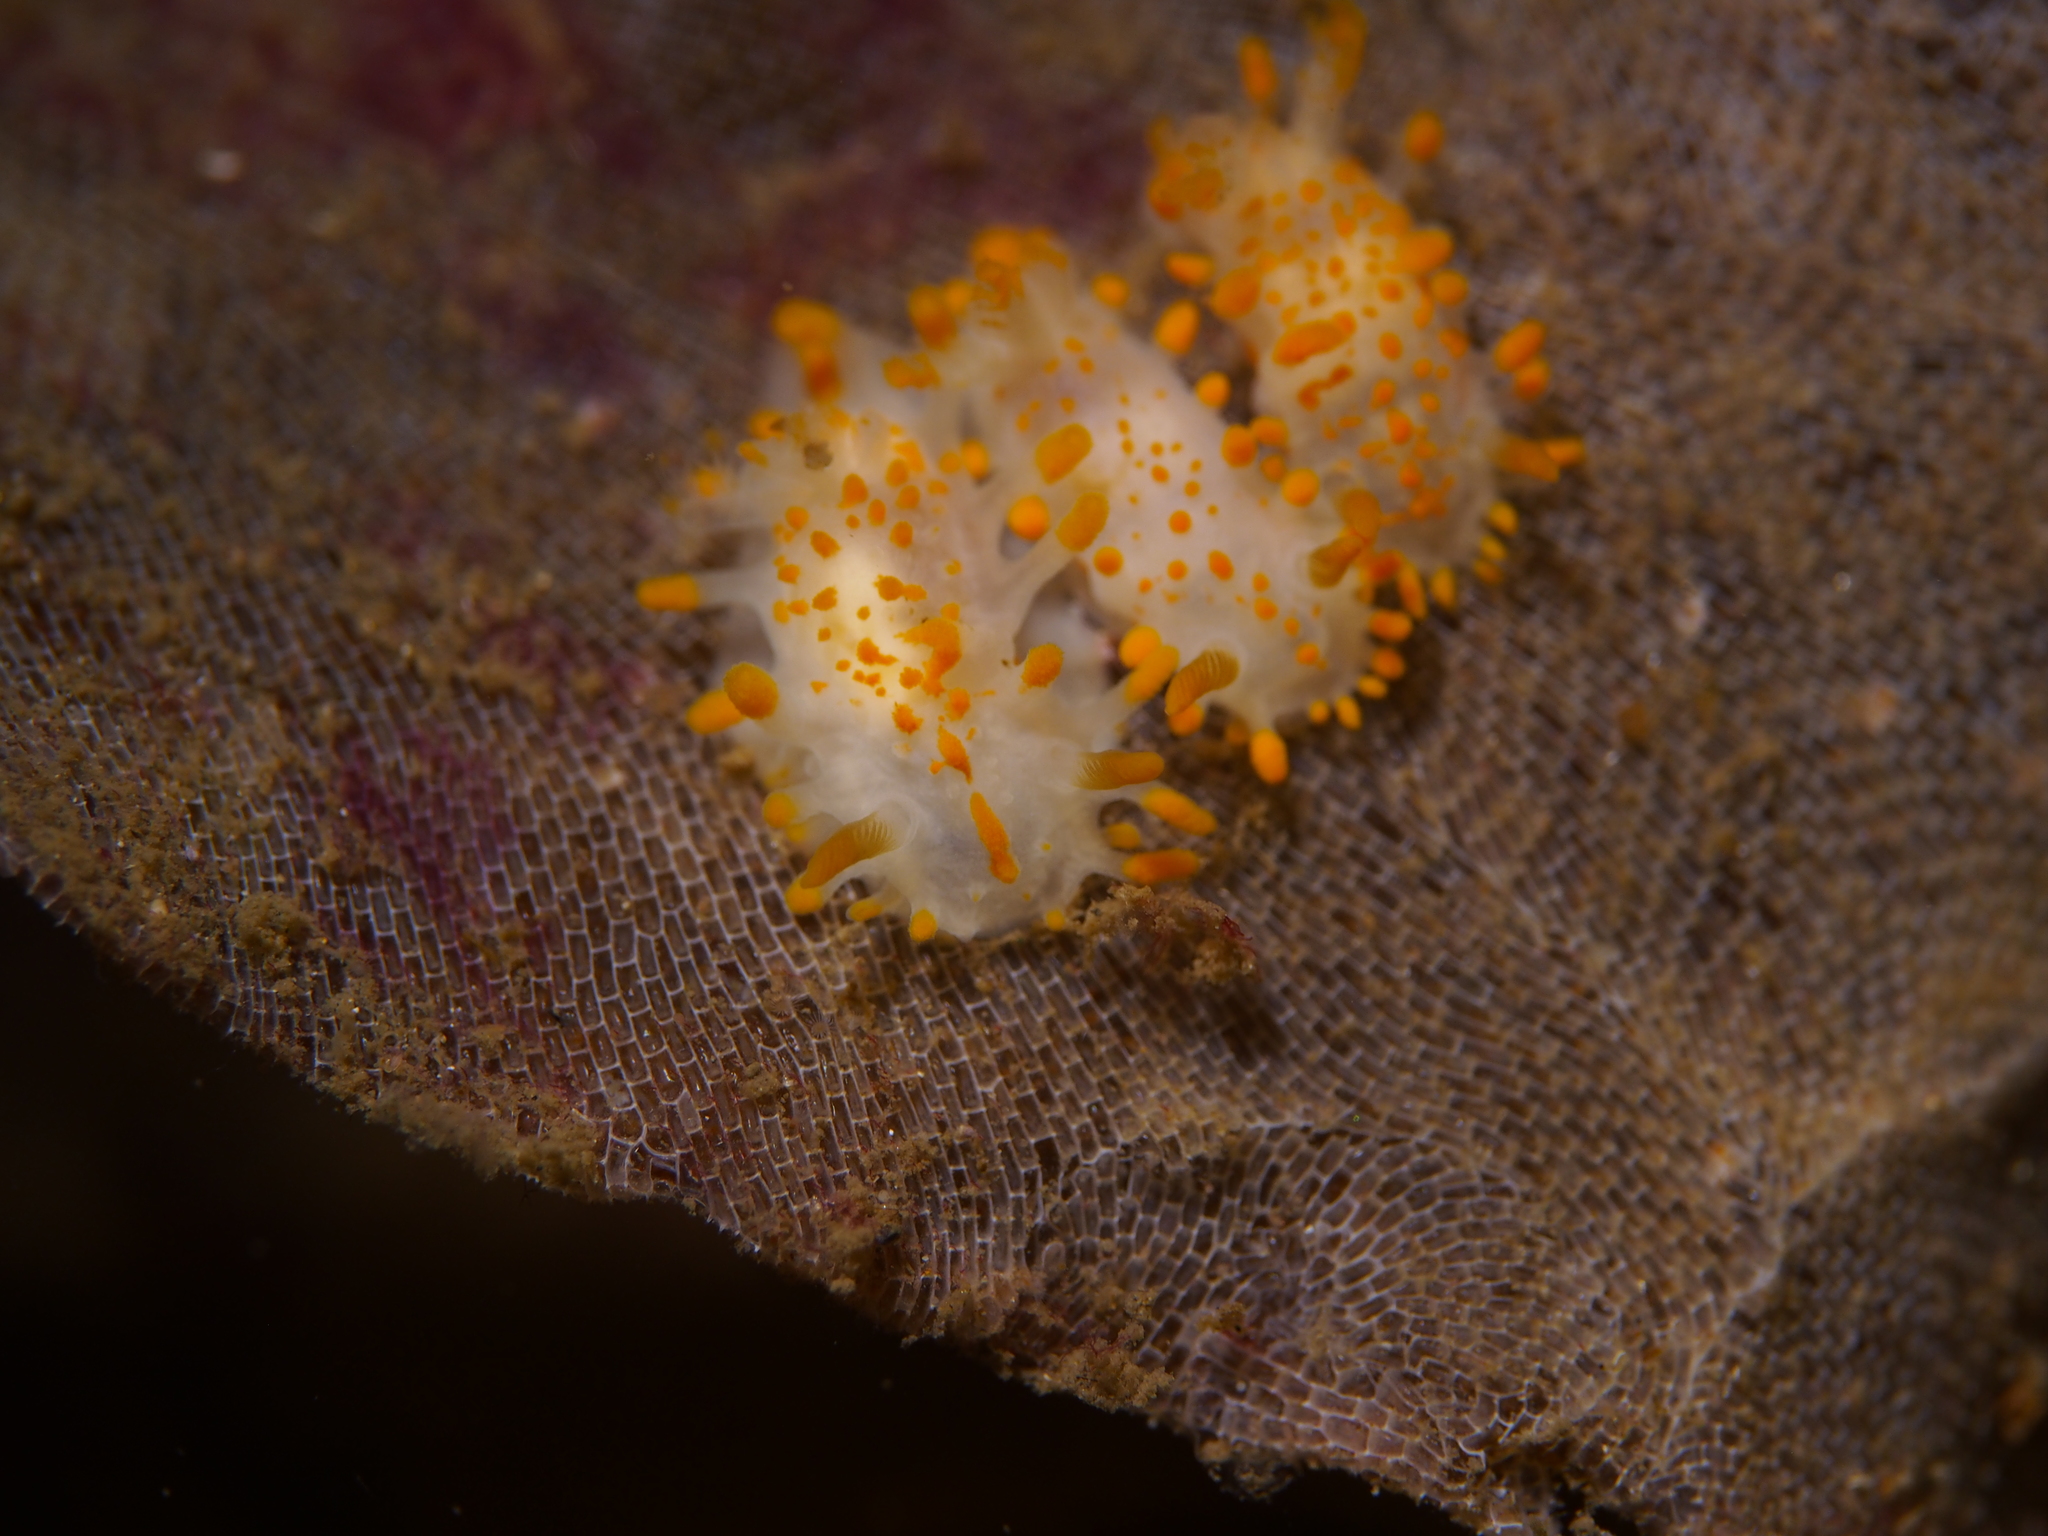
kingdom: Animalia
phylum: Mollusca
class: Gastropoda
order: Nudibranchia
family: Polyceridae
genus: Limacia
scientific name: Limacia clavigera
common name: Orange-clubbed sea slug
